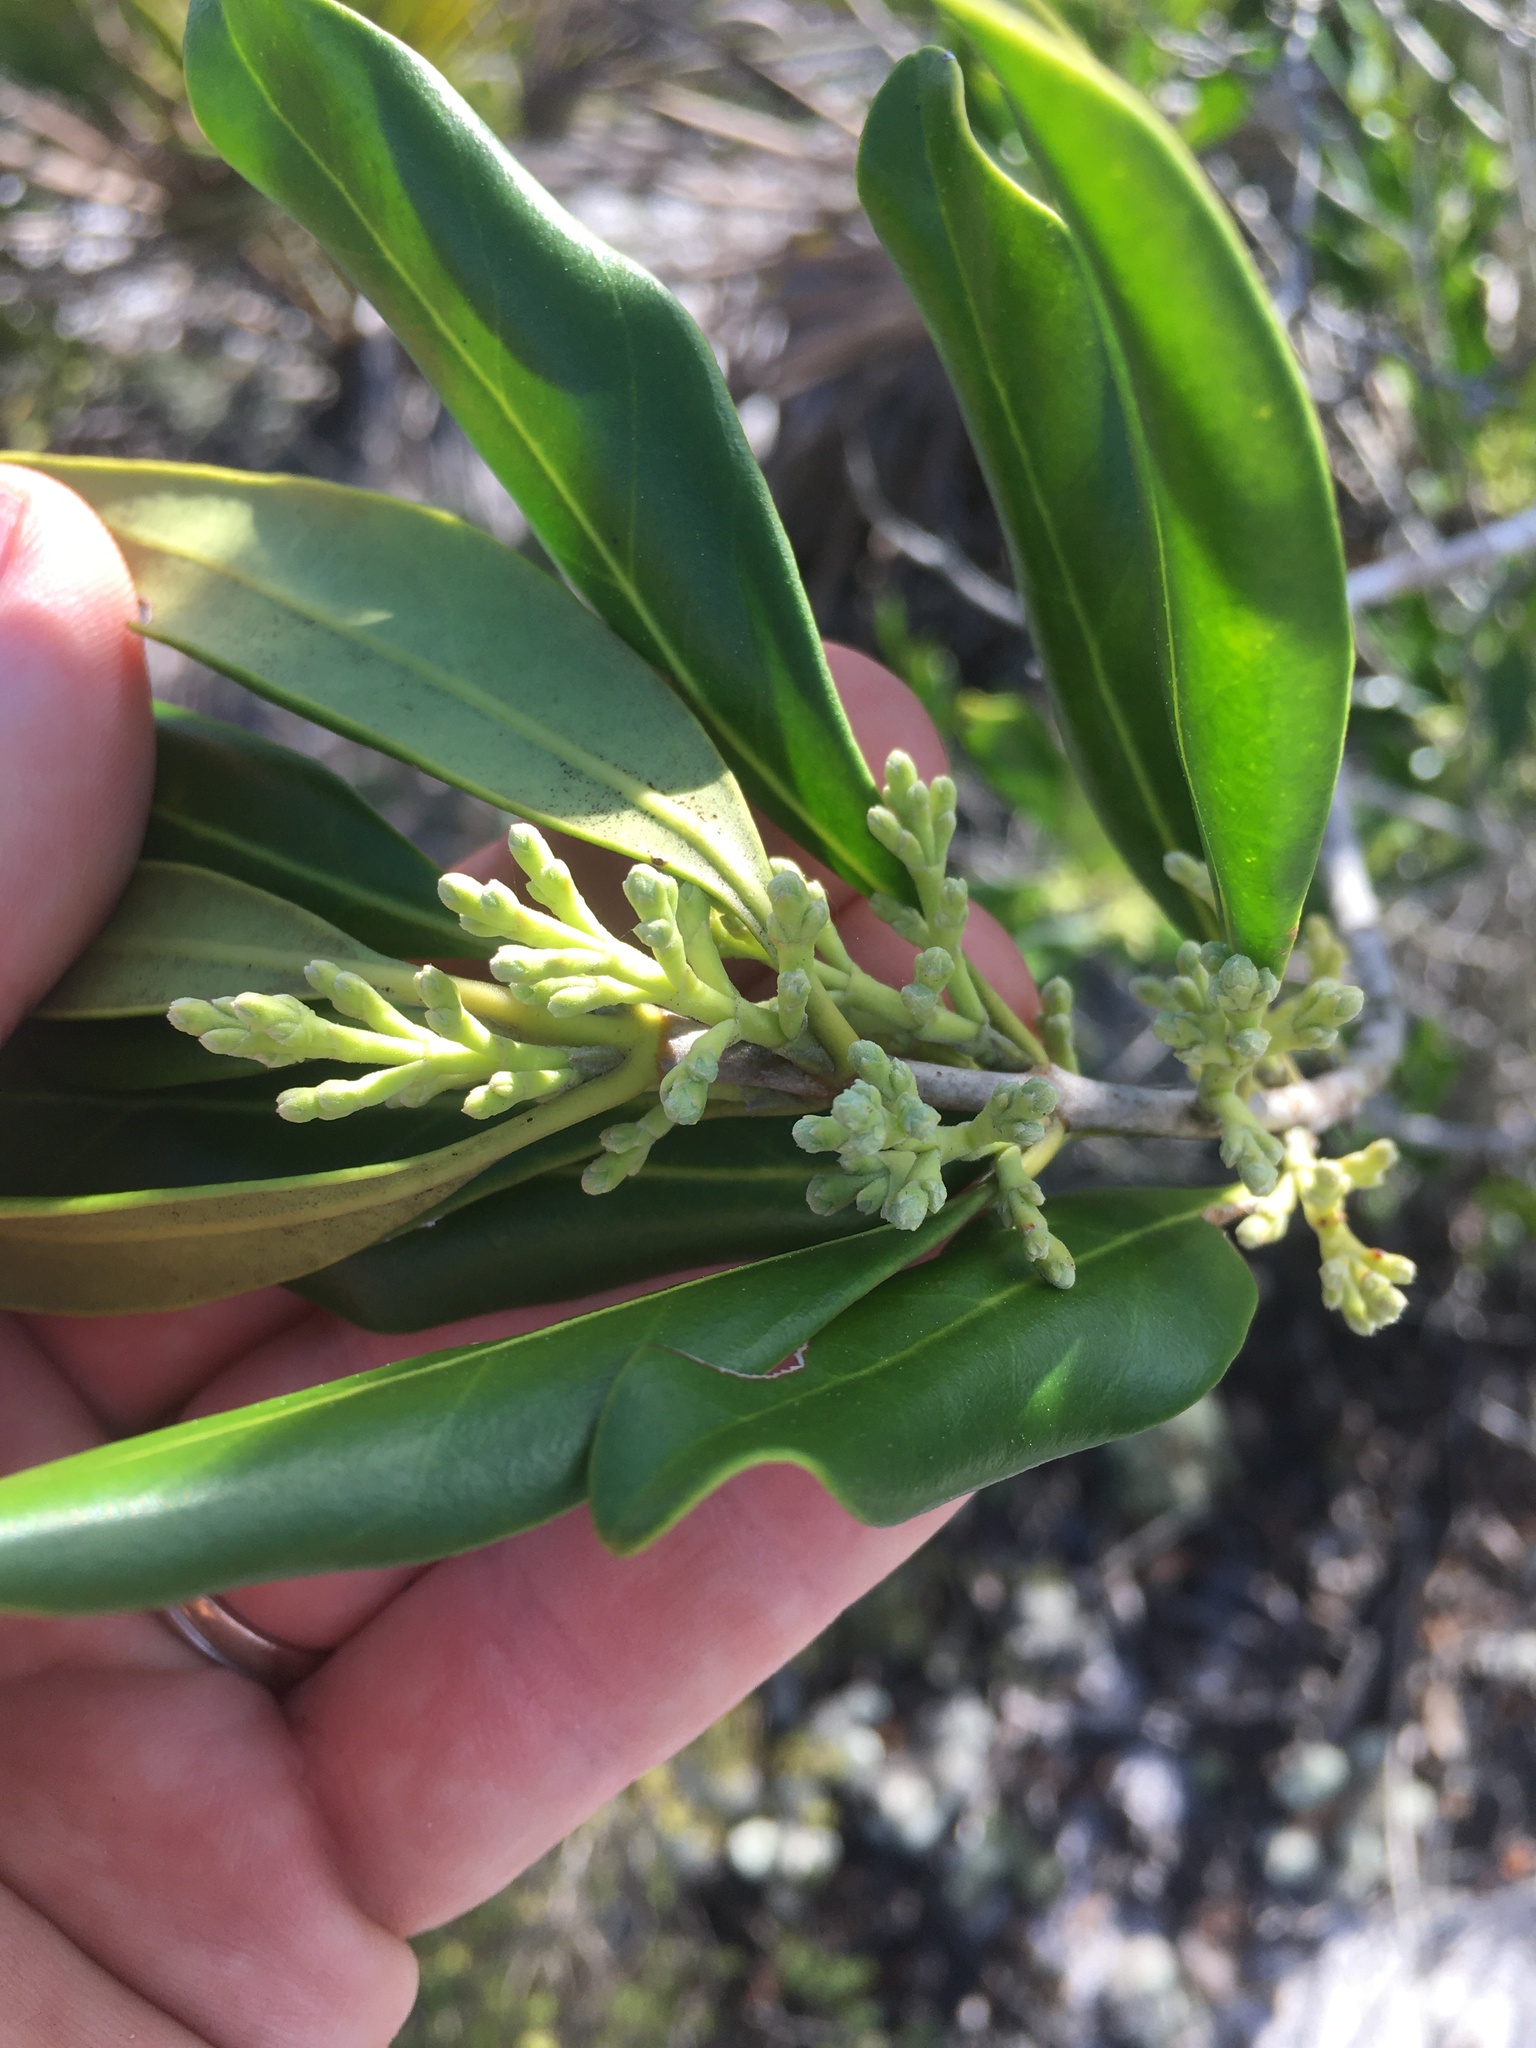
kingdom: Plantae
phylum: Tracheophyta
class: Magnoliopsida
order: Lamiales
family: Oleaceae
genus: Cartrema
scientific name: Cartrema floridana
